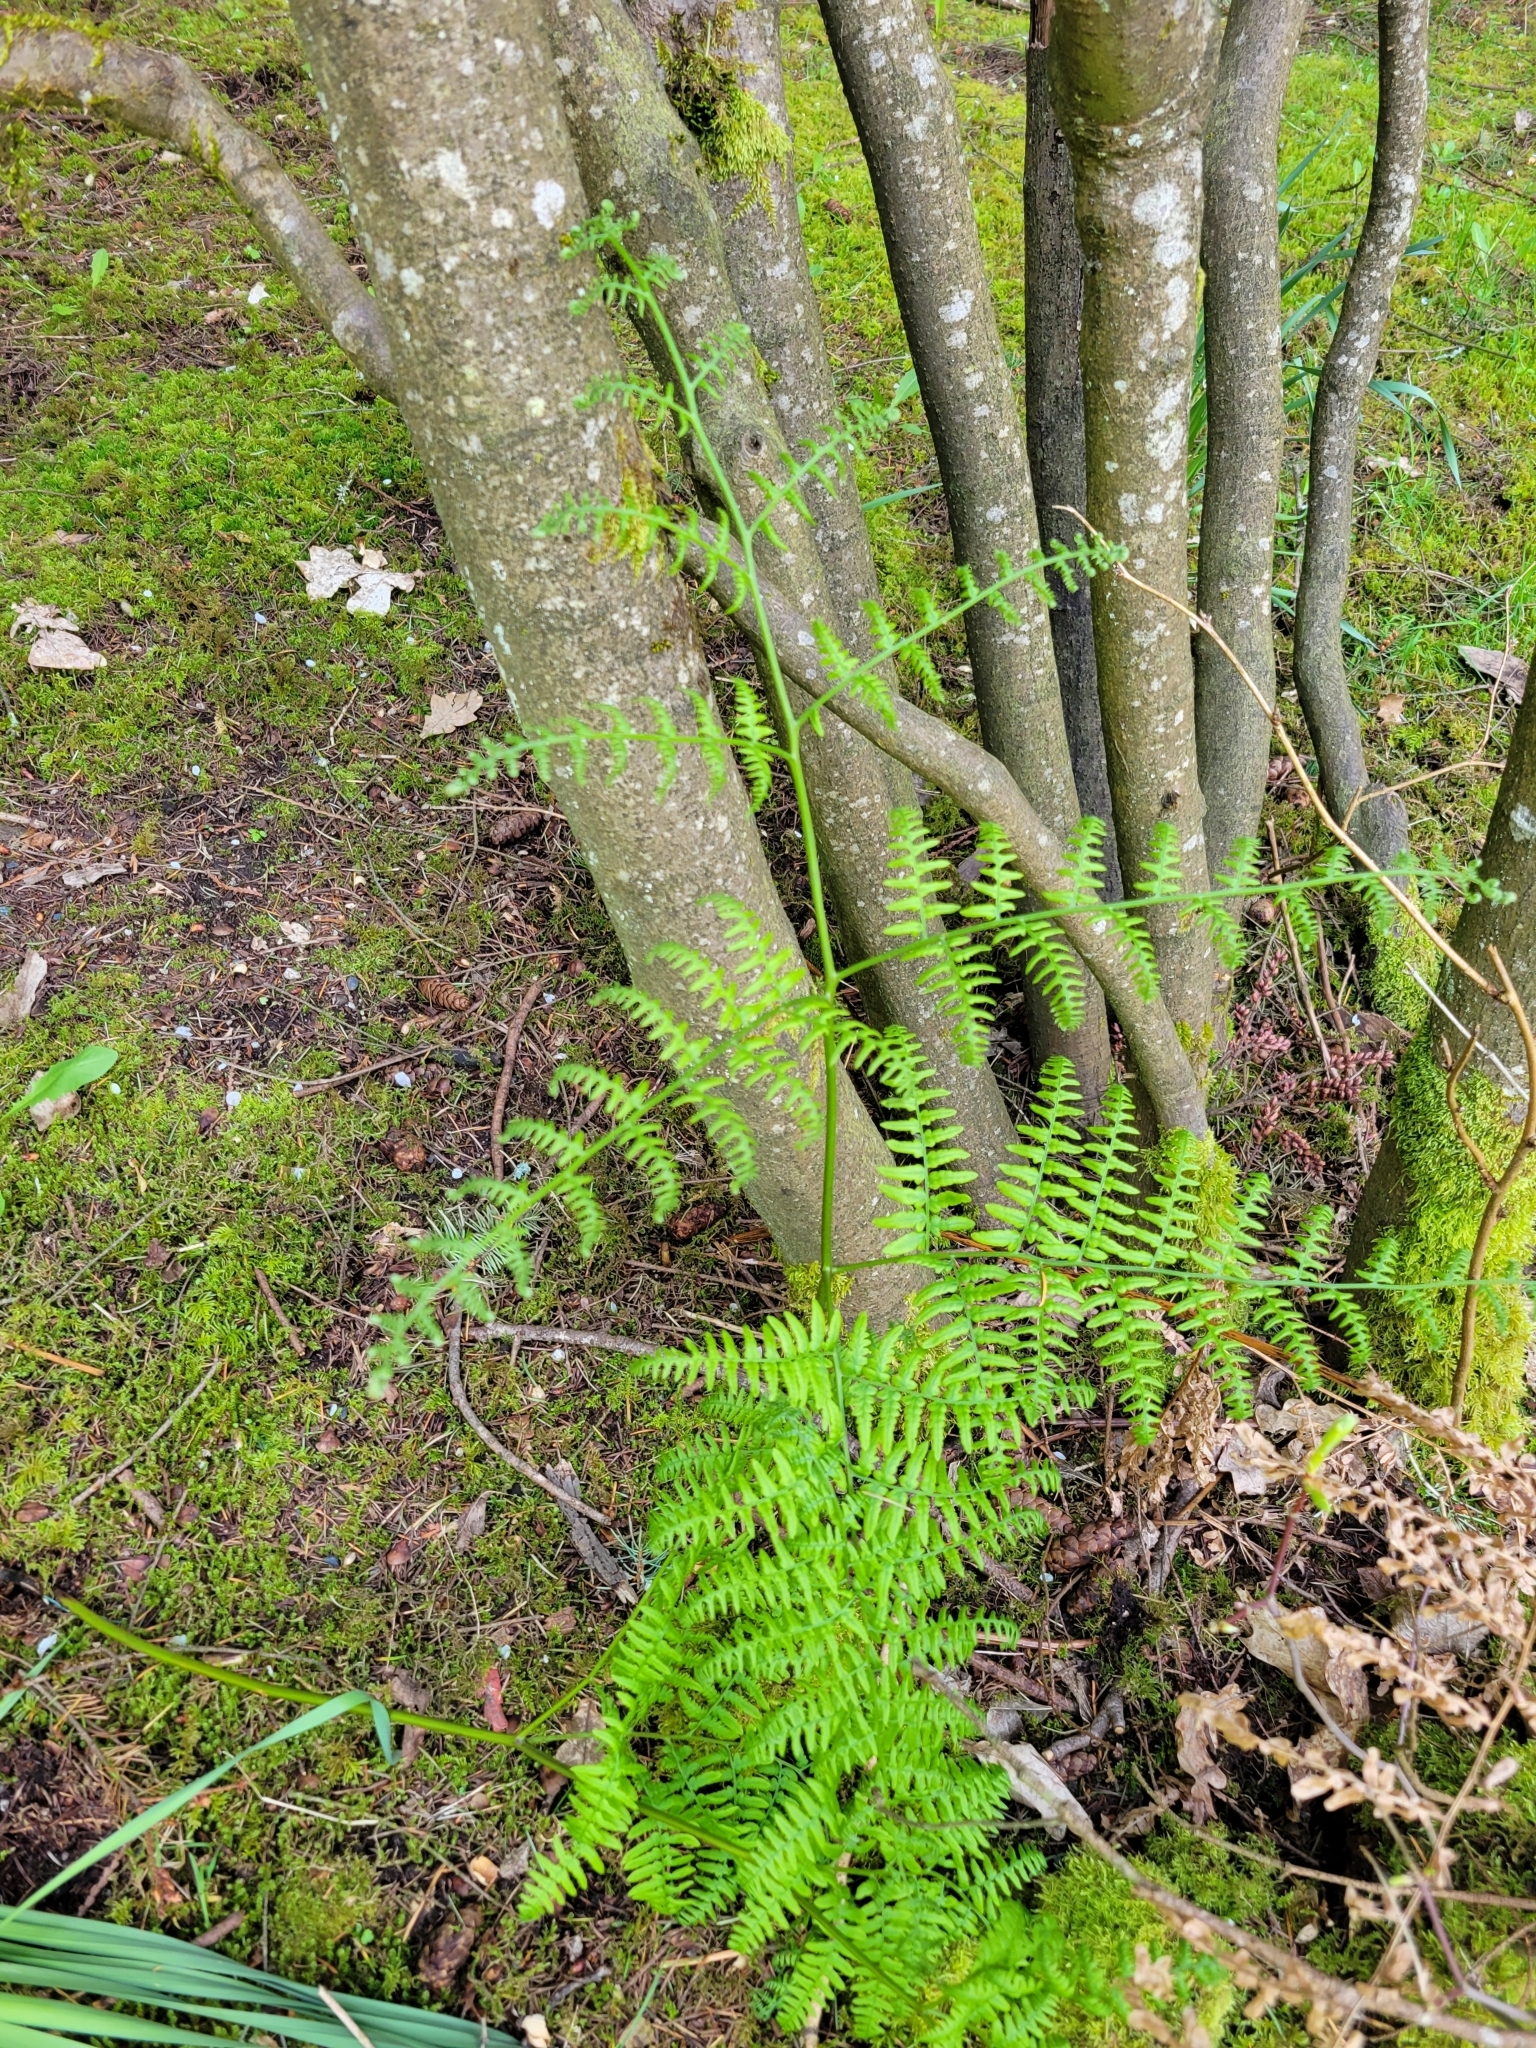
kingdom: Plantae
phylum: Tracheophyta
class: Polypodiopsida
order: Polypodiales
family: Dennstaedtiaceae
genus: Pteridium
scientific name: Pteridium aquilinum
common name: Bracken
